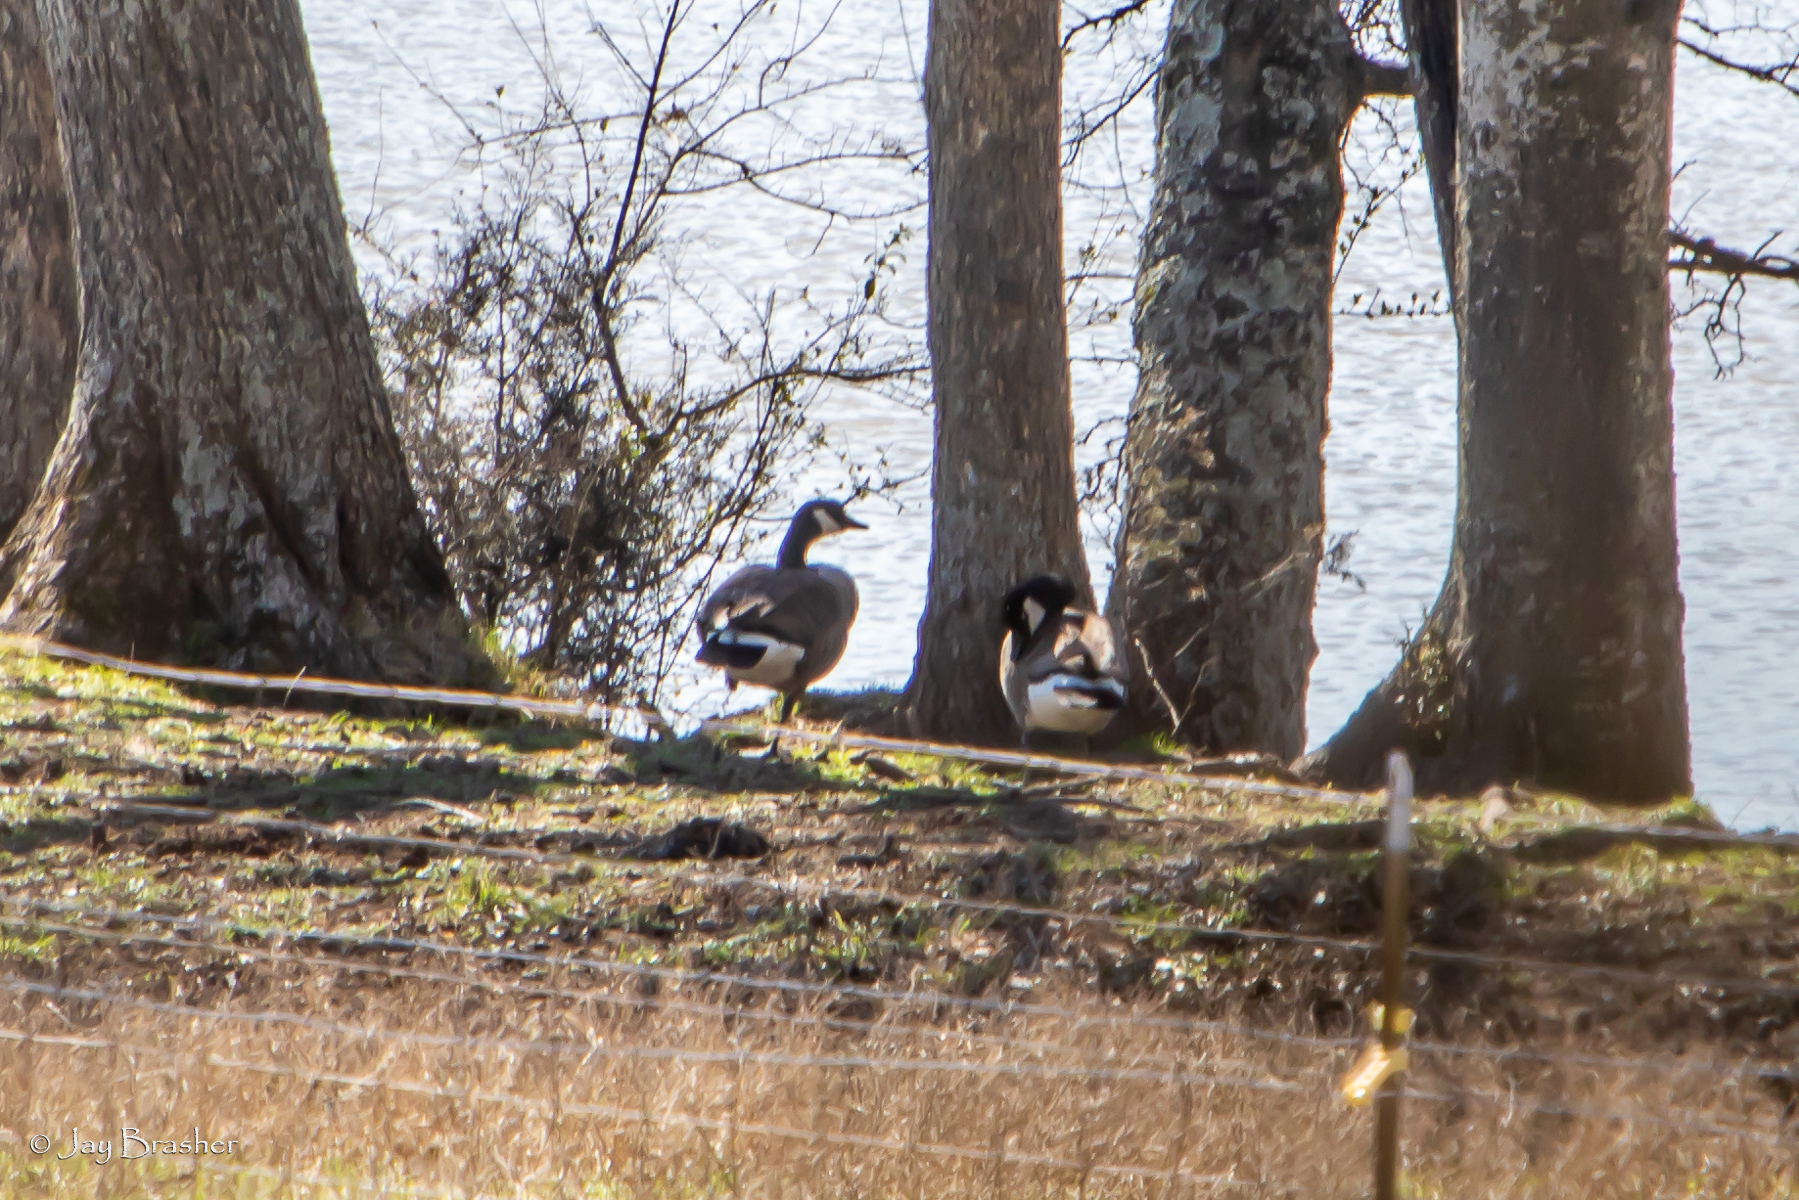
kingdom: Animalia
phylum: Chordata
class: Aves
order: Anseriformes
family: Anatidae
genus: Branta
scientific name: Branta canadensis
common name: Canada goose
